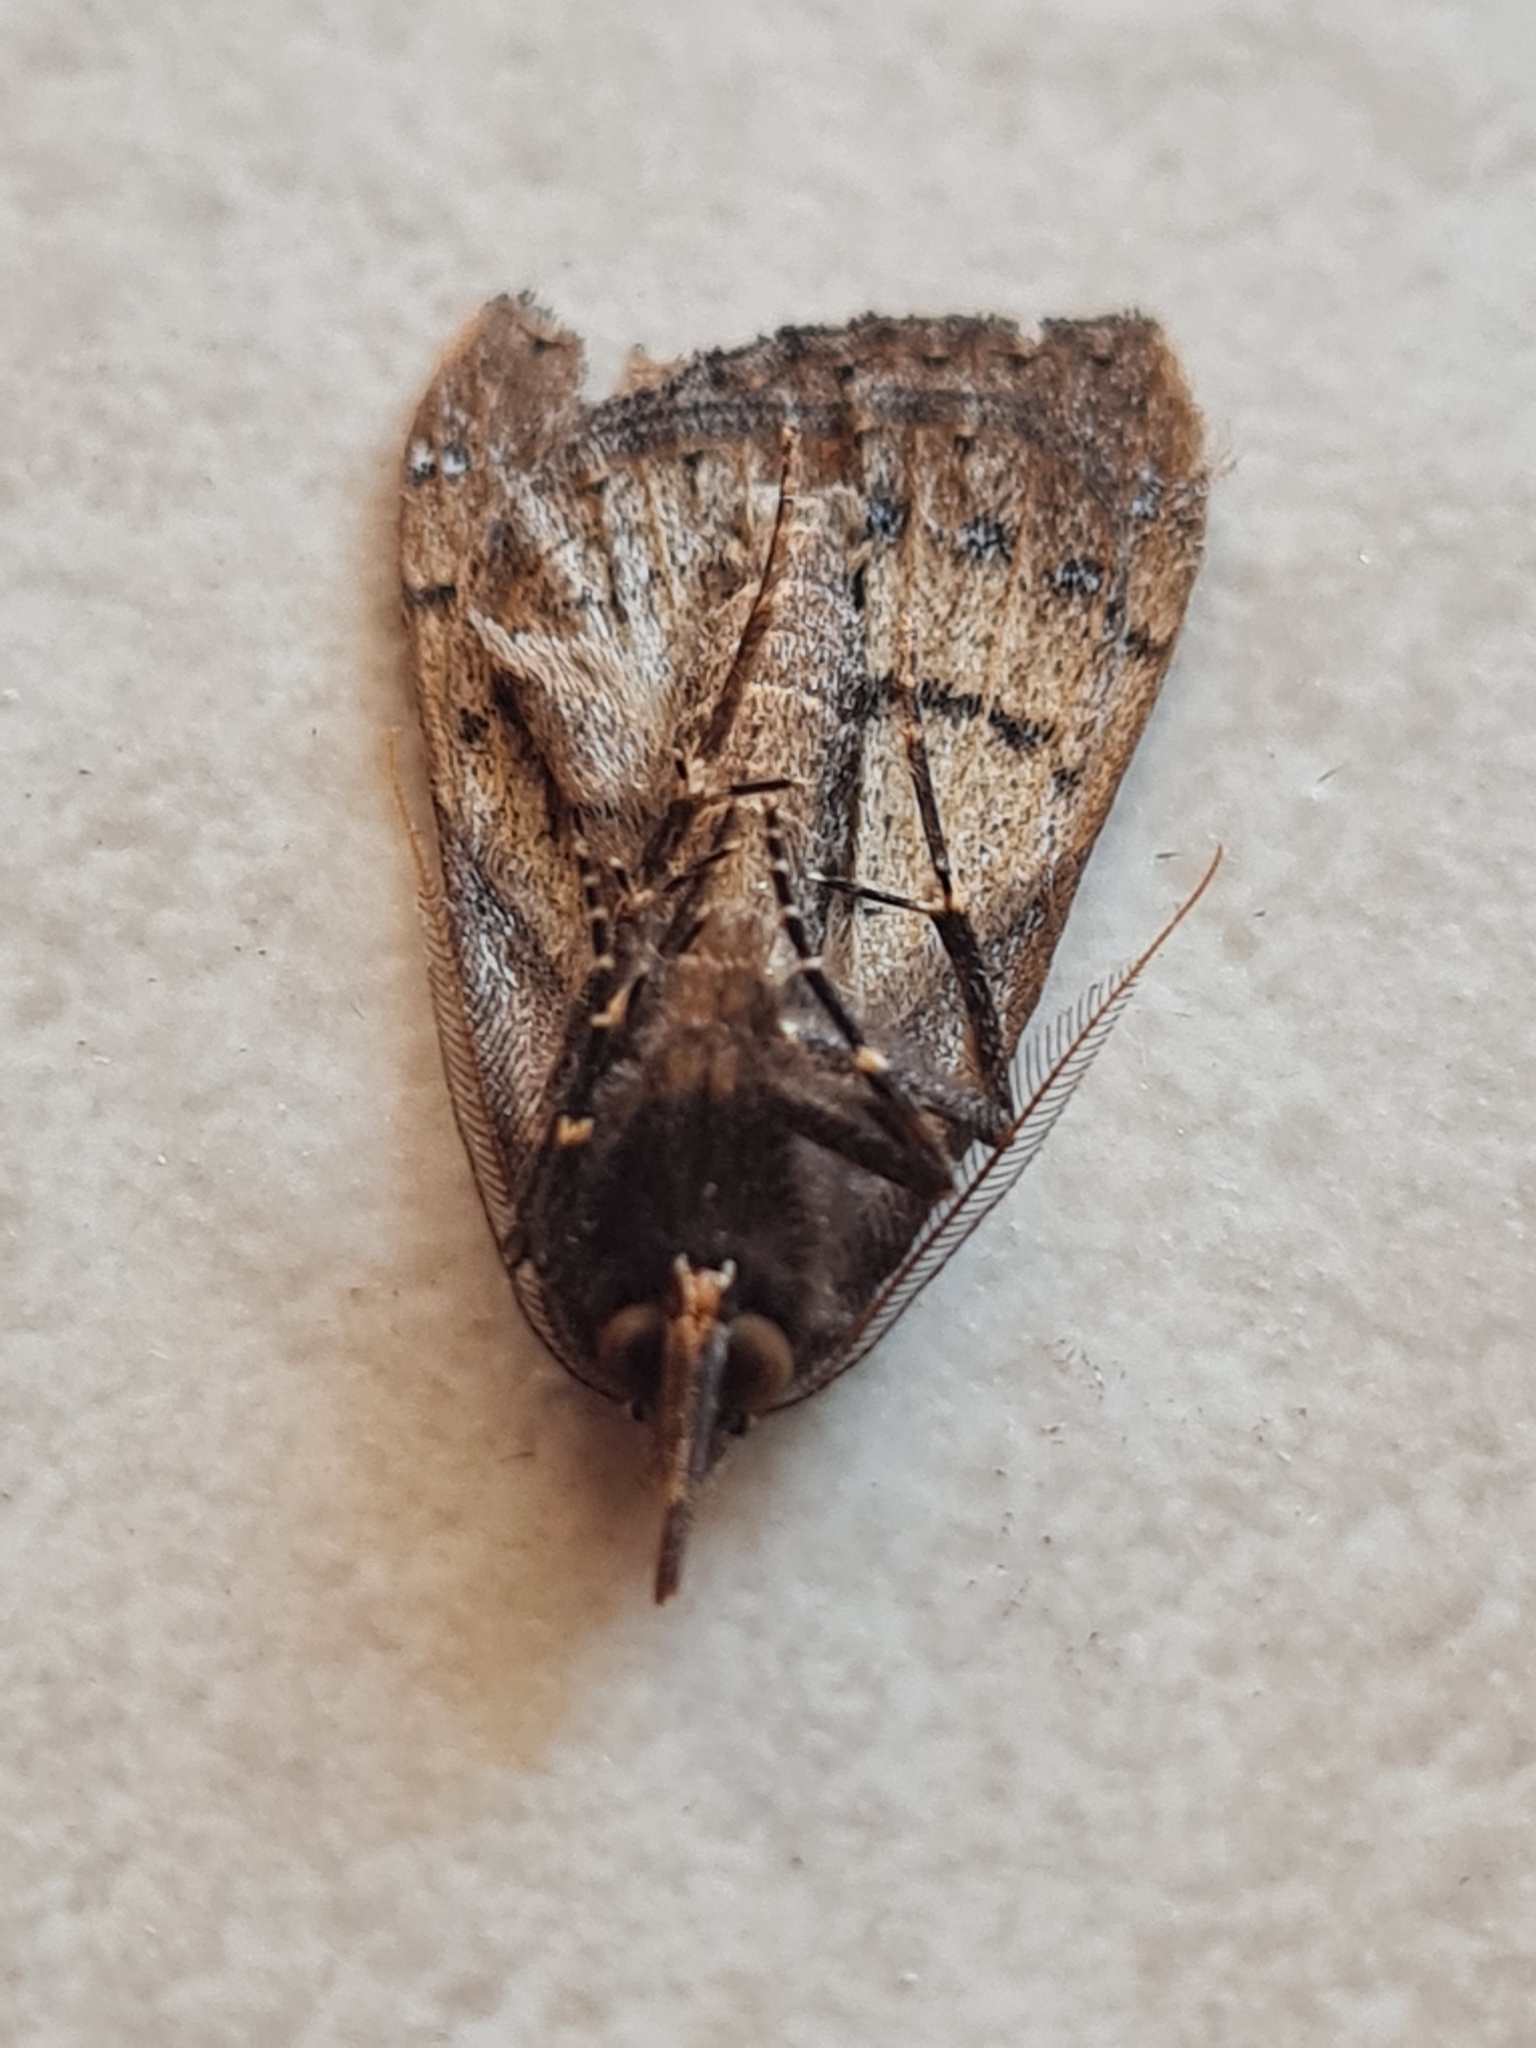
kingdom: Animalia
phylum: Arthropoda
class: Insecta
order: Lepidoptera
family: Erebidae
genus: Rhapsa
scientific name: Rhapsa scotosialis
